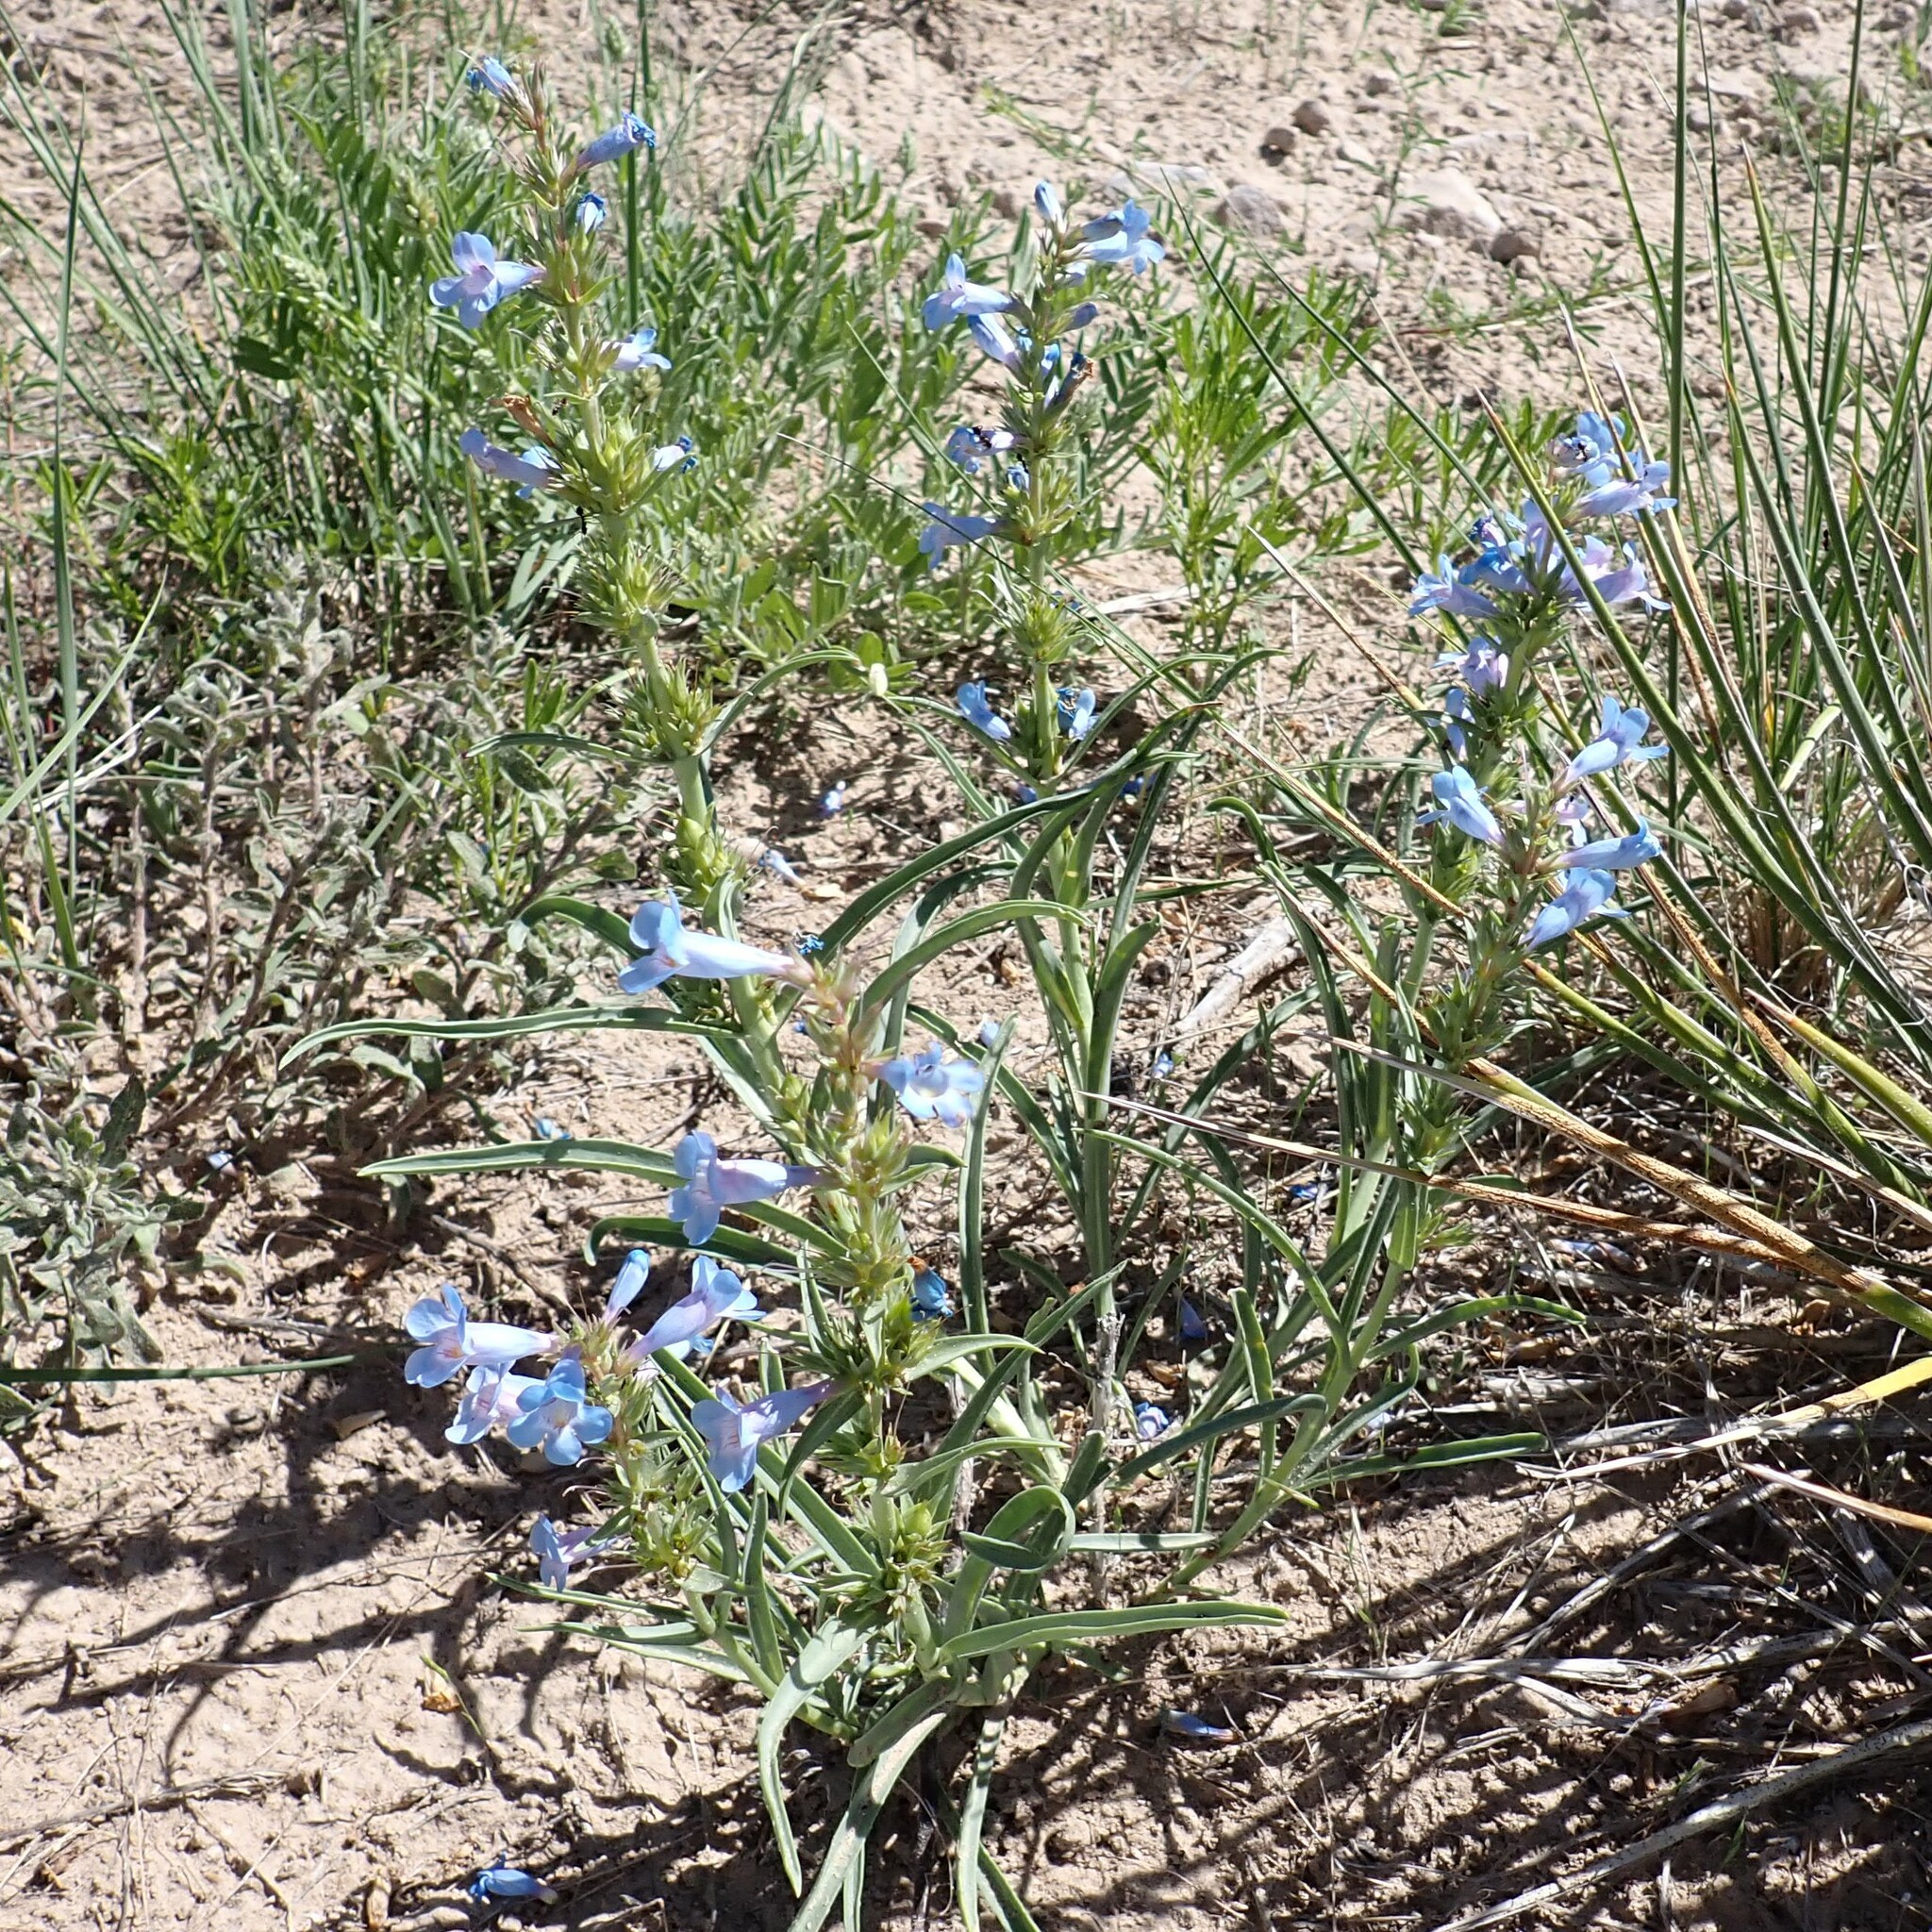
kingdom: Plantae
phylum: Tracheophyta
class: Magnoliopsida
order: Lamiales
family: Plantaginaceae
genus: Penstemon
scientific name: Penstemon angustifolius
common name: Narrow beardtongue
